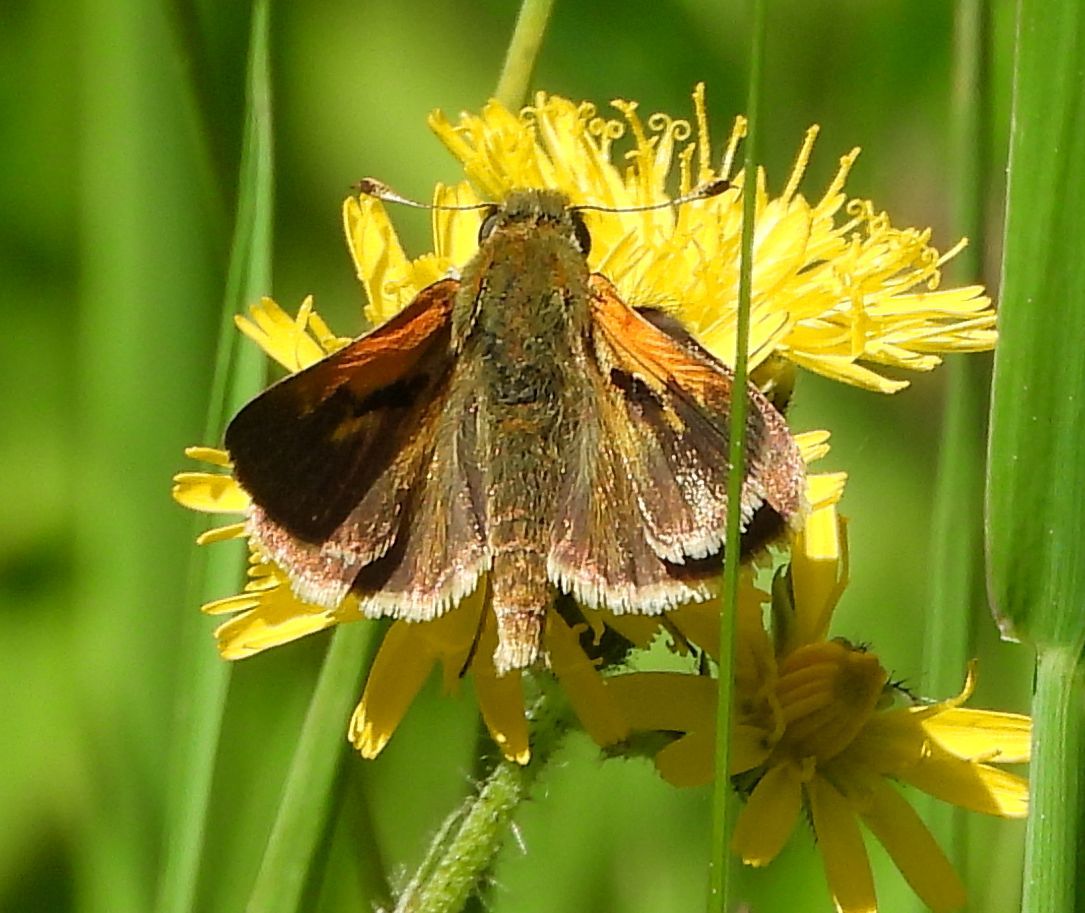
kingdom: Animalia
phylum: Arthropoda
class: Insecta
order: Lepidoptera
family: Hesperiidae
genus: Polites
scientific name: Polites themistocles
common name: Tawny-edged skipper
